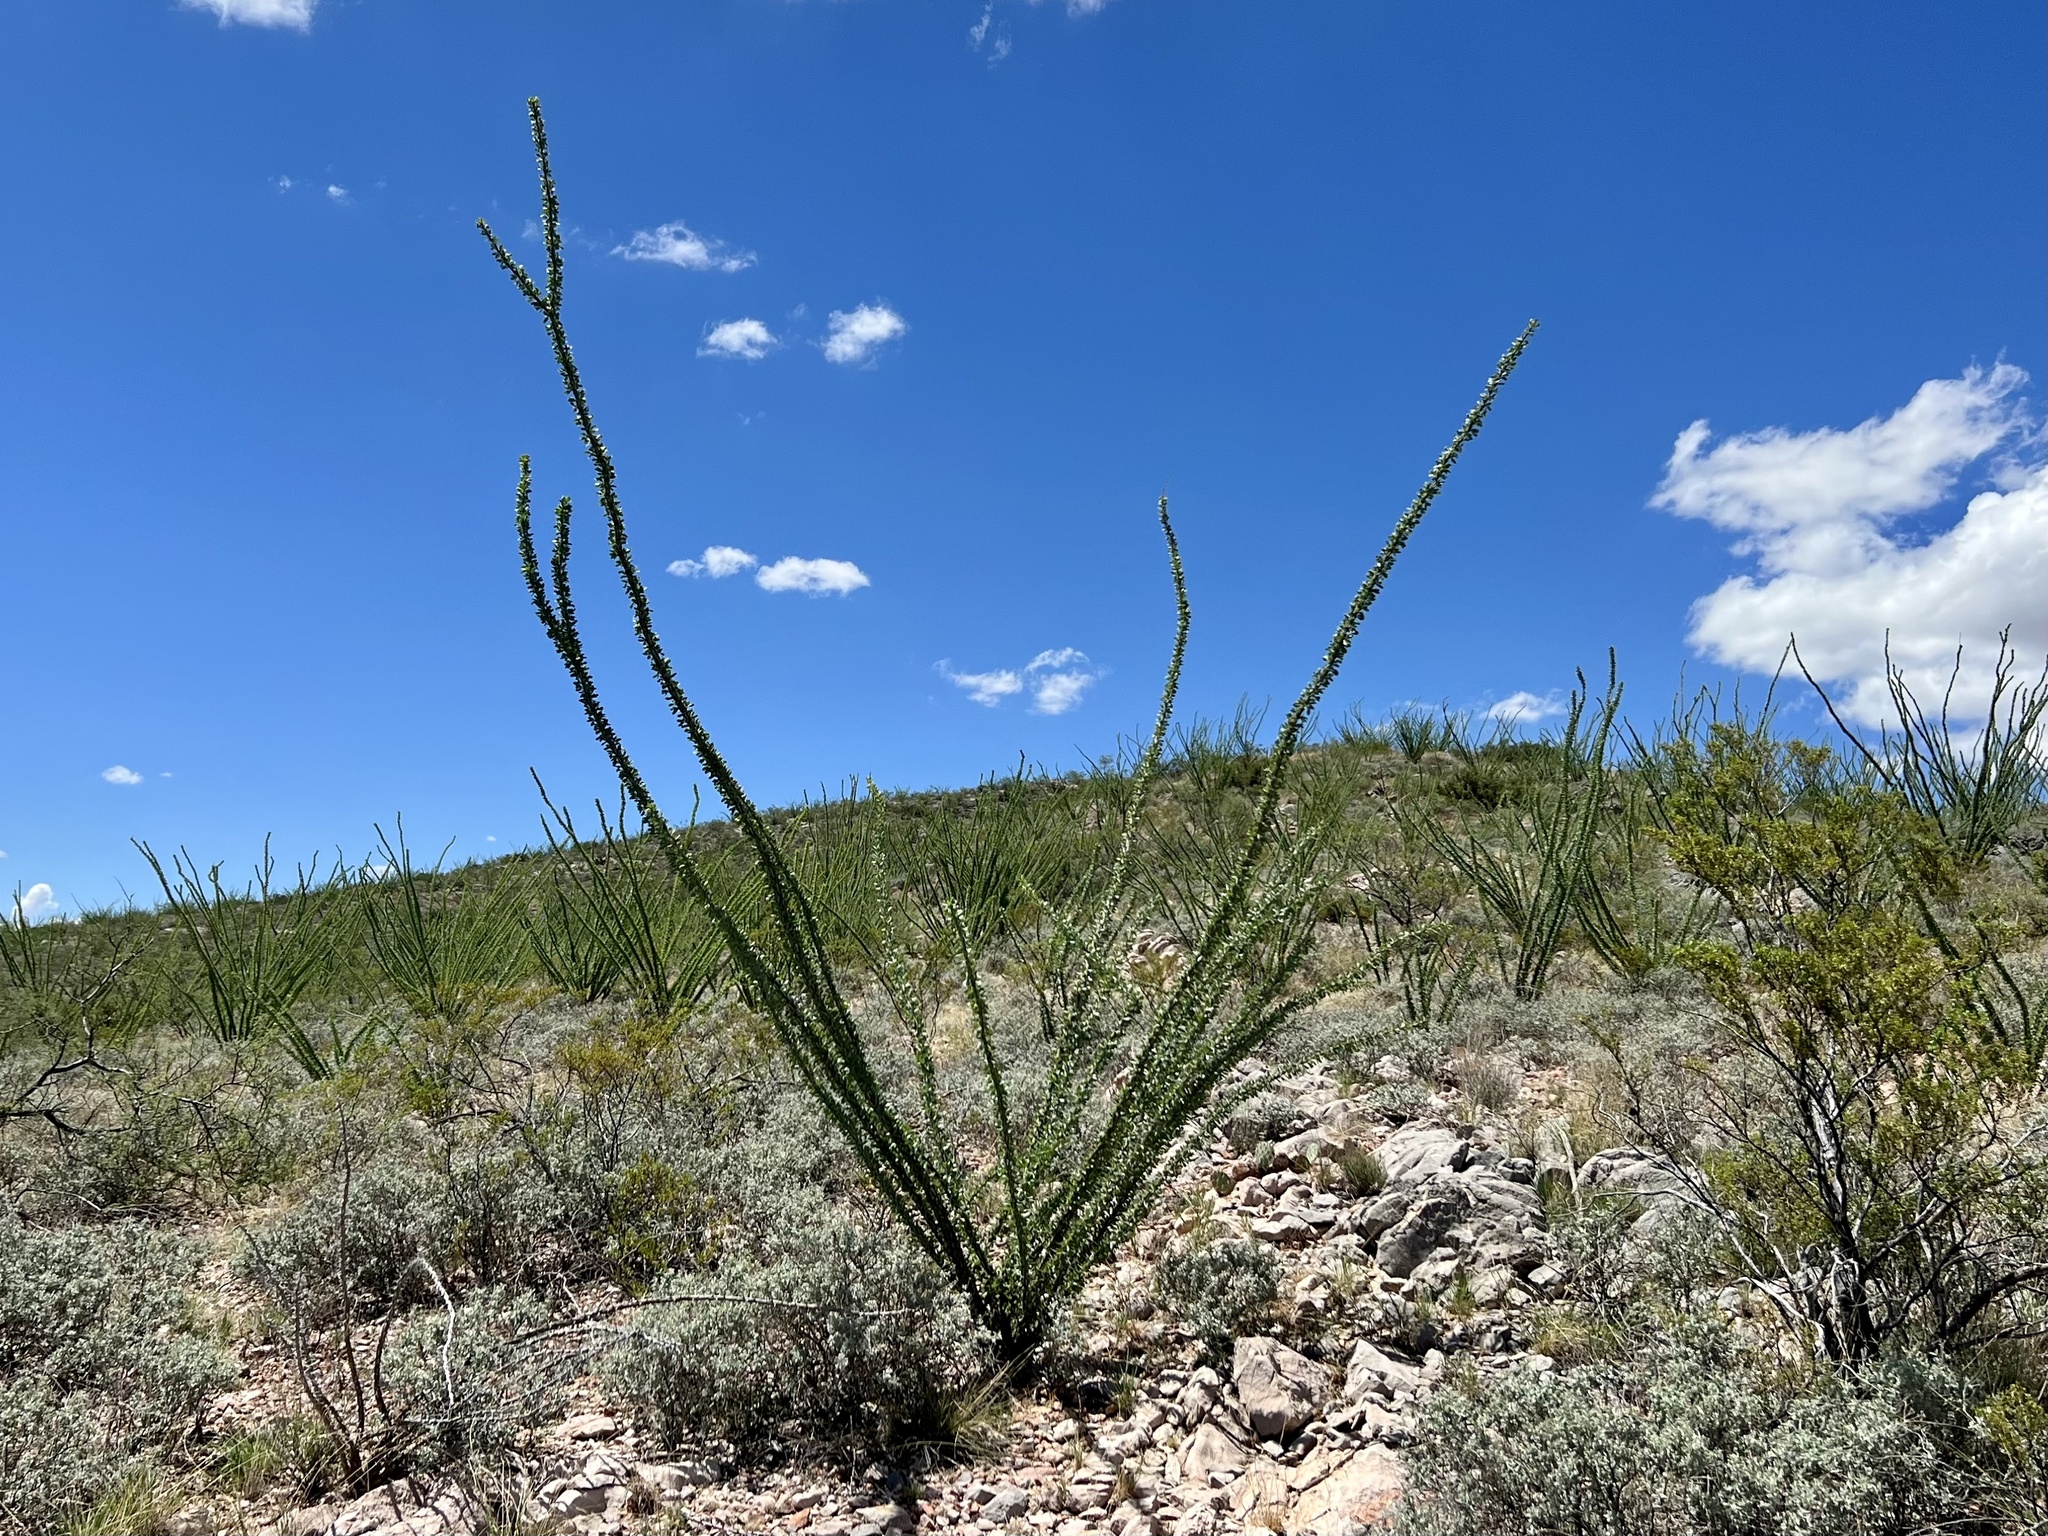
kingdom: Plantae
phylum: Tracheophyta
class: Magnoliopsida
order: Ericales
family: Fouquieriaceae
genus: Fouquieria
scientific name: Fouquieria splendens
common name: Vine-cactus
